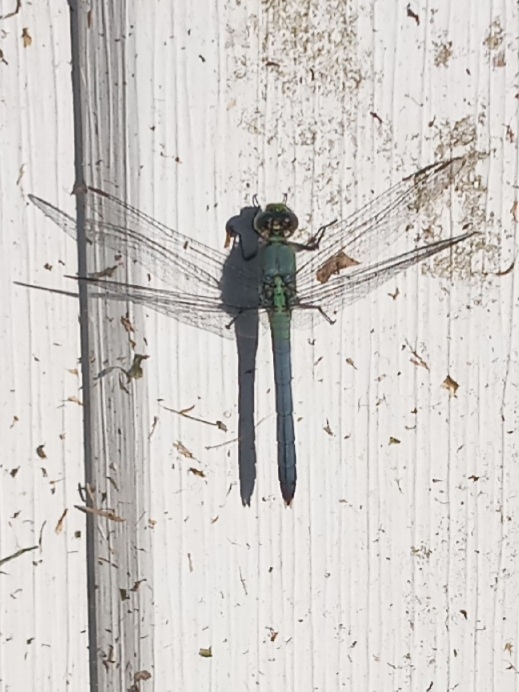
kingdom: Animalia
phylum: Arthropoda
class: Insecta
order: Odonata
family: Libellulidae
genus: Erythemis
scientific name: Erythemis simplicicollis
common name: Eastern pondhawk
